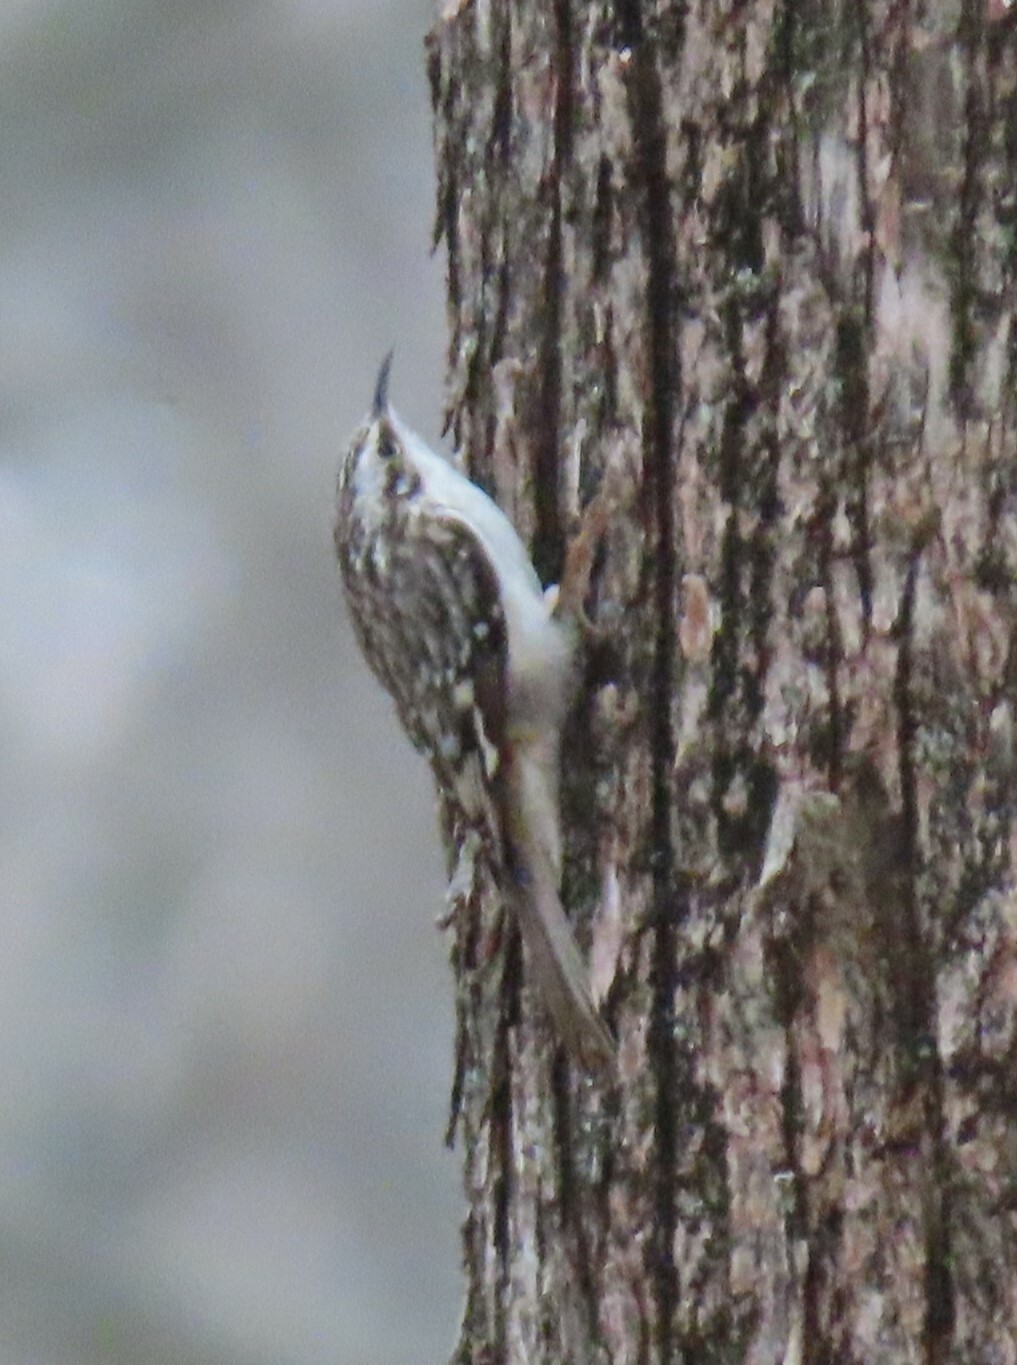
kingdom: Animalia
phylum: Chordata
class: Aves
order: Passeriformes
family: Certhiidae
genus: Certhia
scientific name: Certhia americana
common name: Brown creeper
